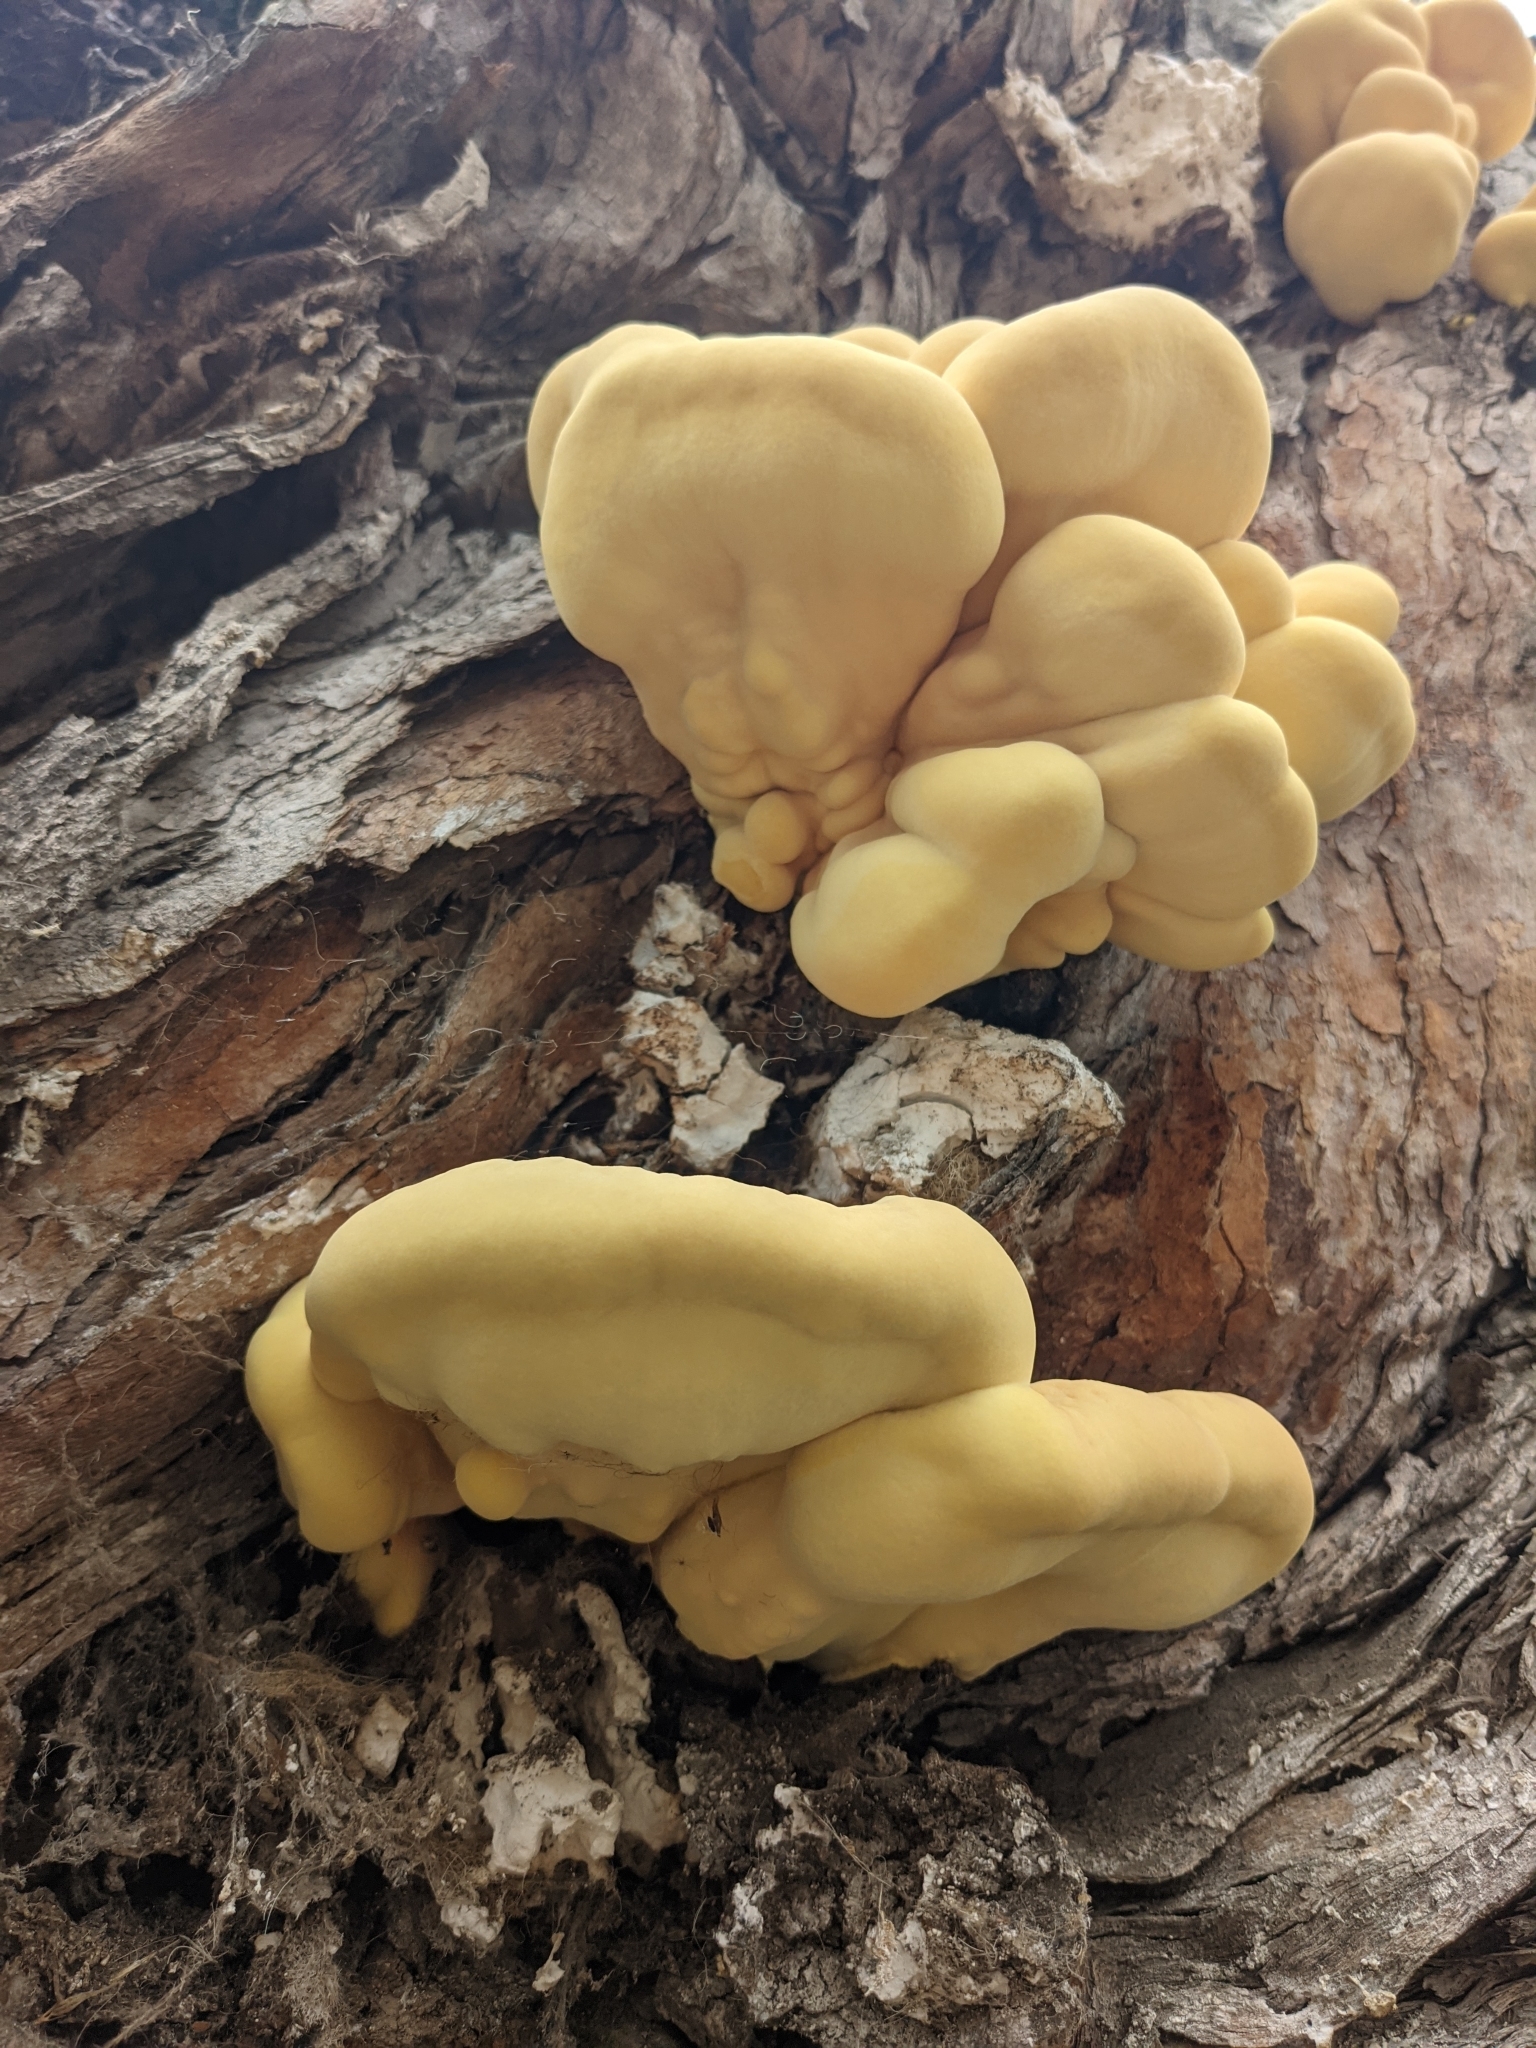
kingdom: Fungi
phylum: Basidiomycota
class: Agaricomycetes
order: Polyporales
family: Laetiporaceae
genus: Laetiporus
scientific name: Laetiporus gilbertsonii
